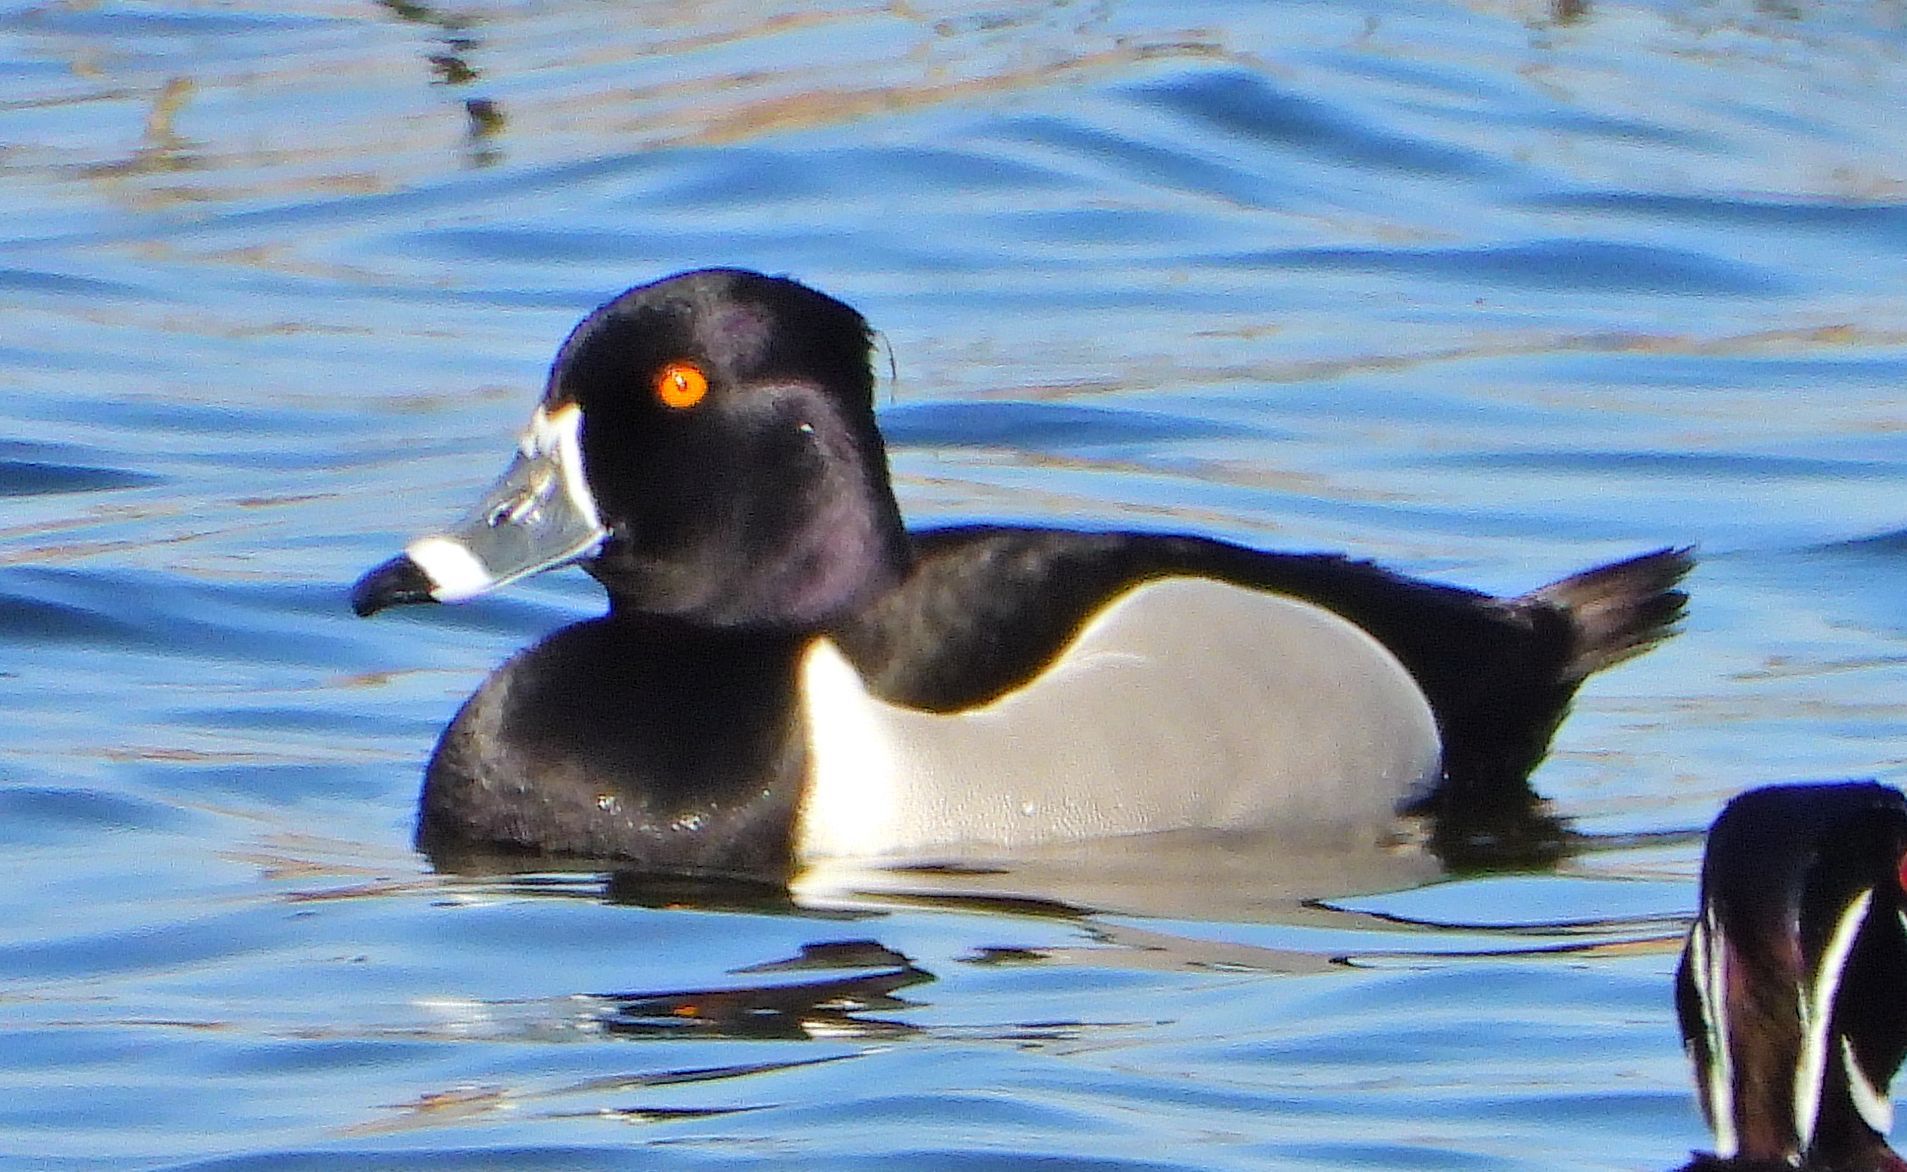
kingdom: Animalia
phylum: Chordata
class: Aves
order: Anseriformes
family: Anatidae
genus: Aythya
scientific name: Aythya collaris
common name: Ring-necked duck
